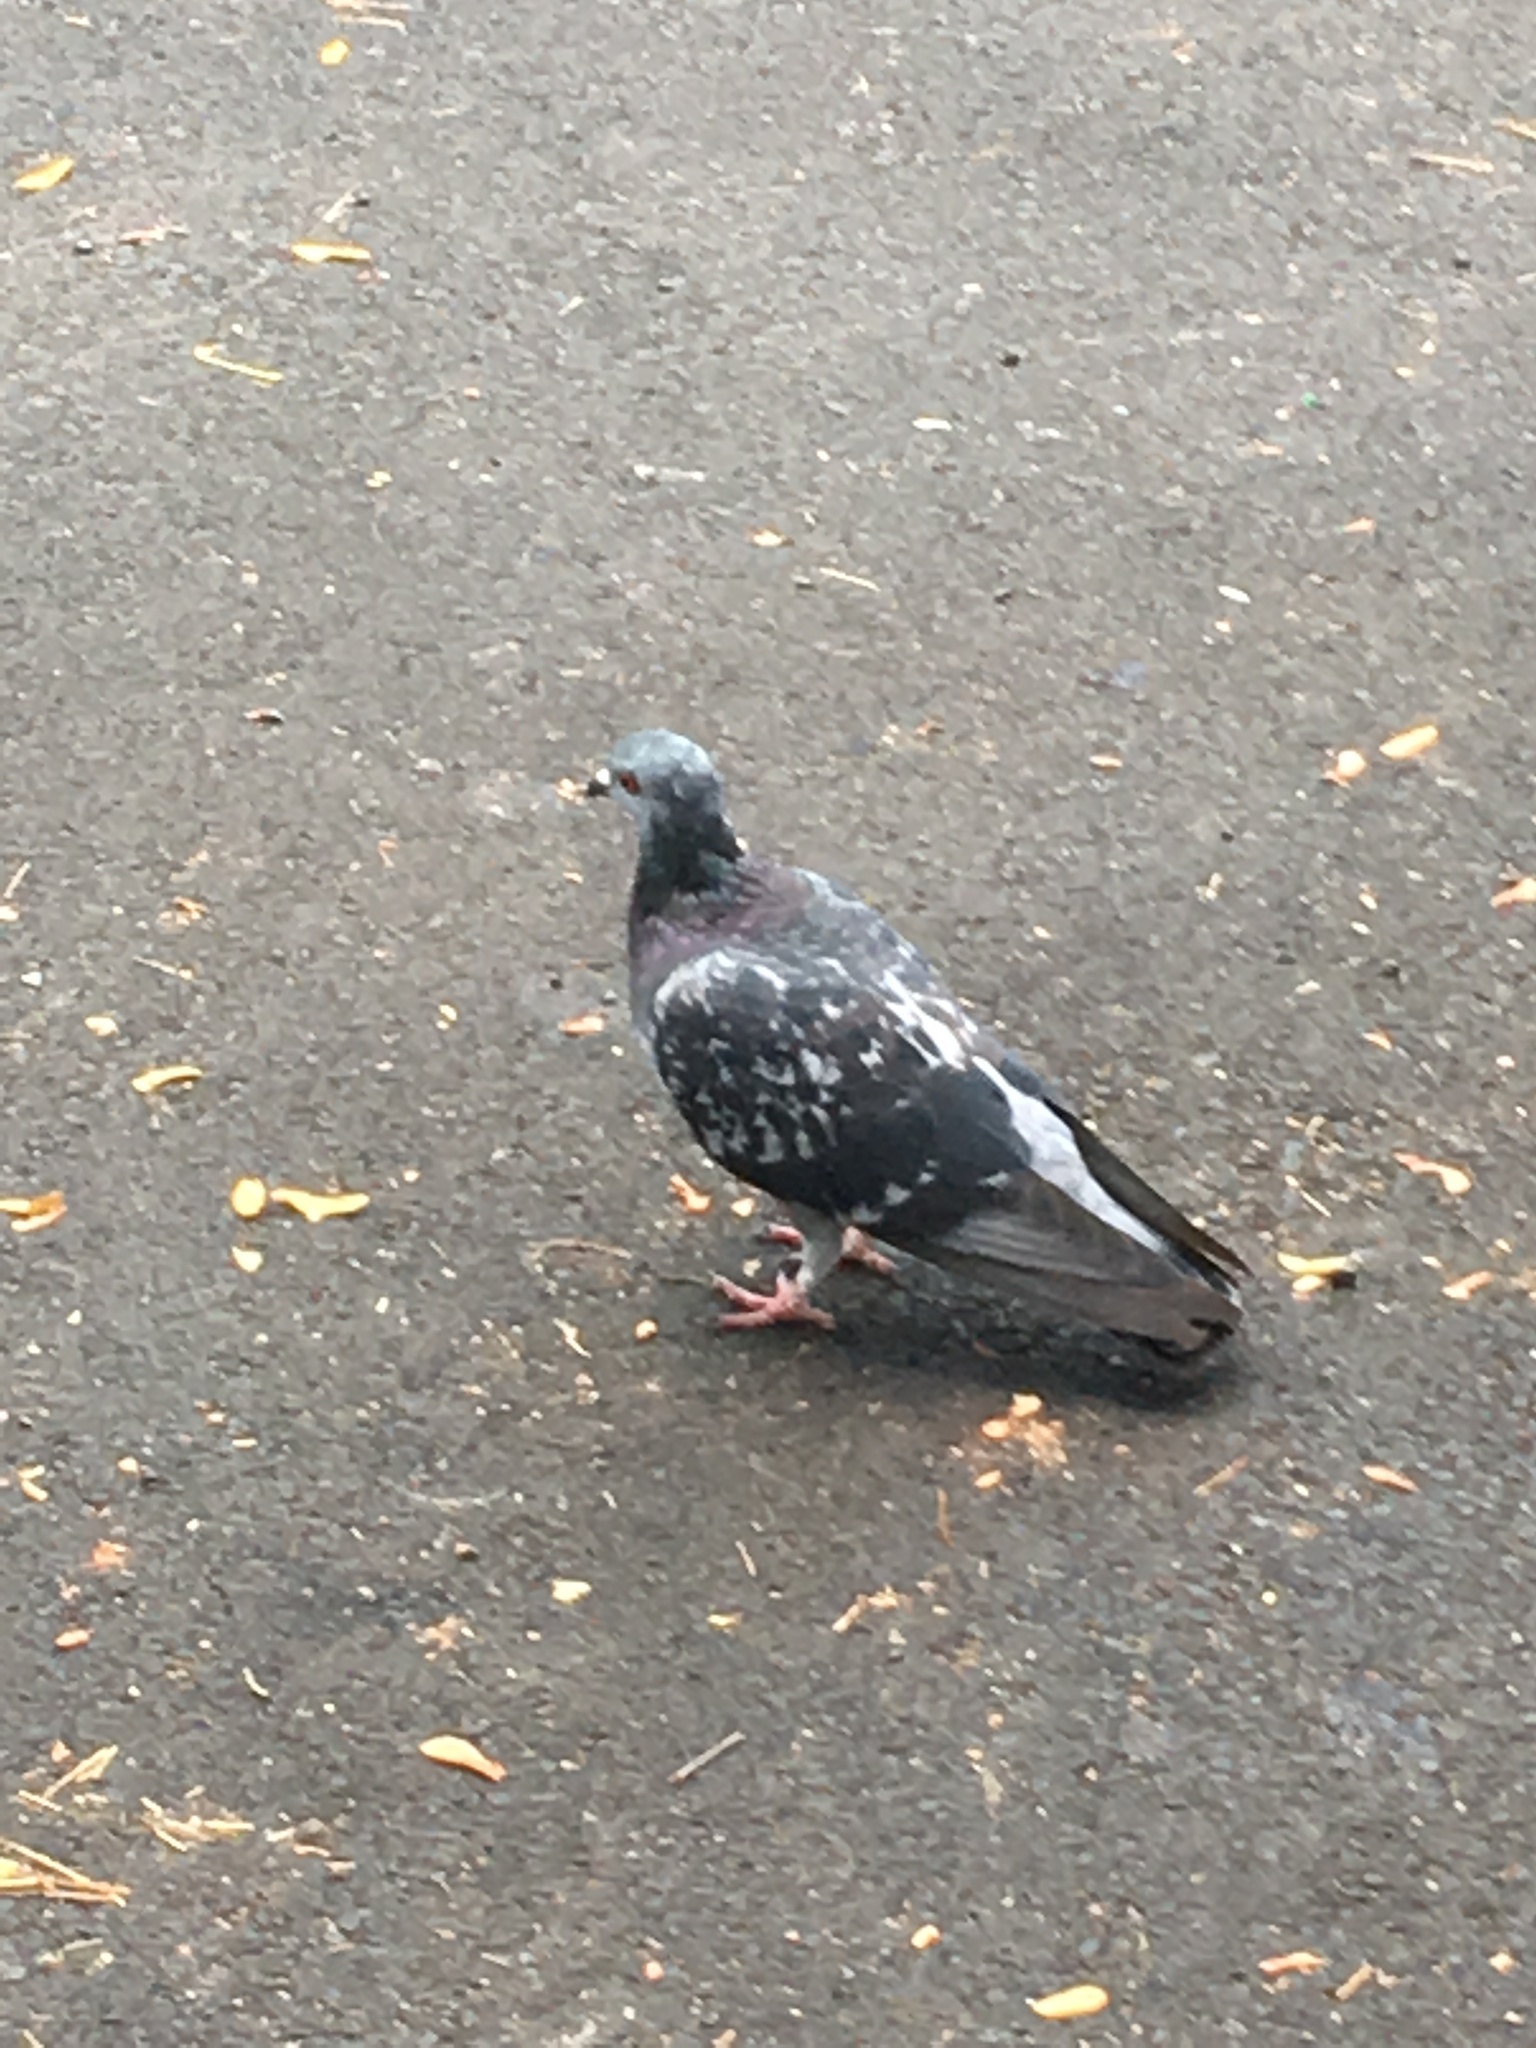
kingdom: Animalia
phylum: Chordata
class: Aves
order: Columbiformes
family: Columbidae
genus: Columba
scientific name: Columba livia
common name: Rock pigeon
